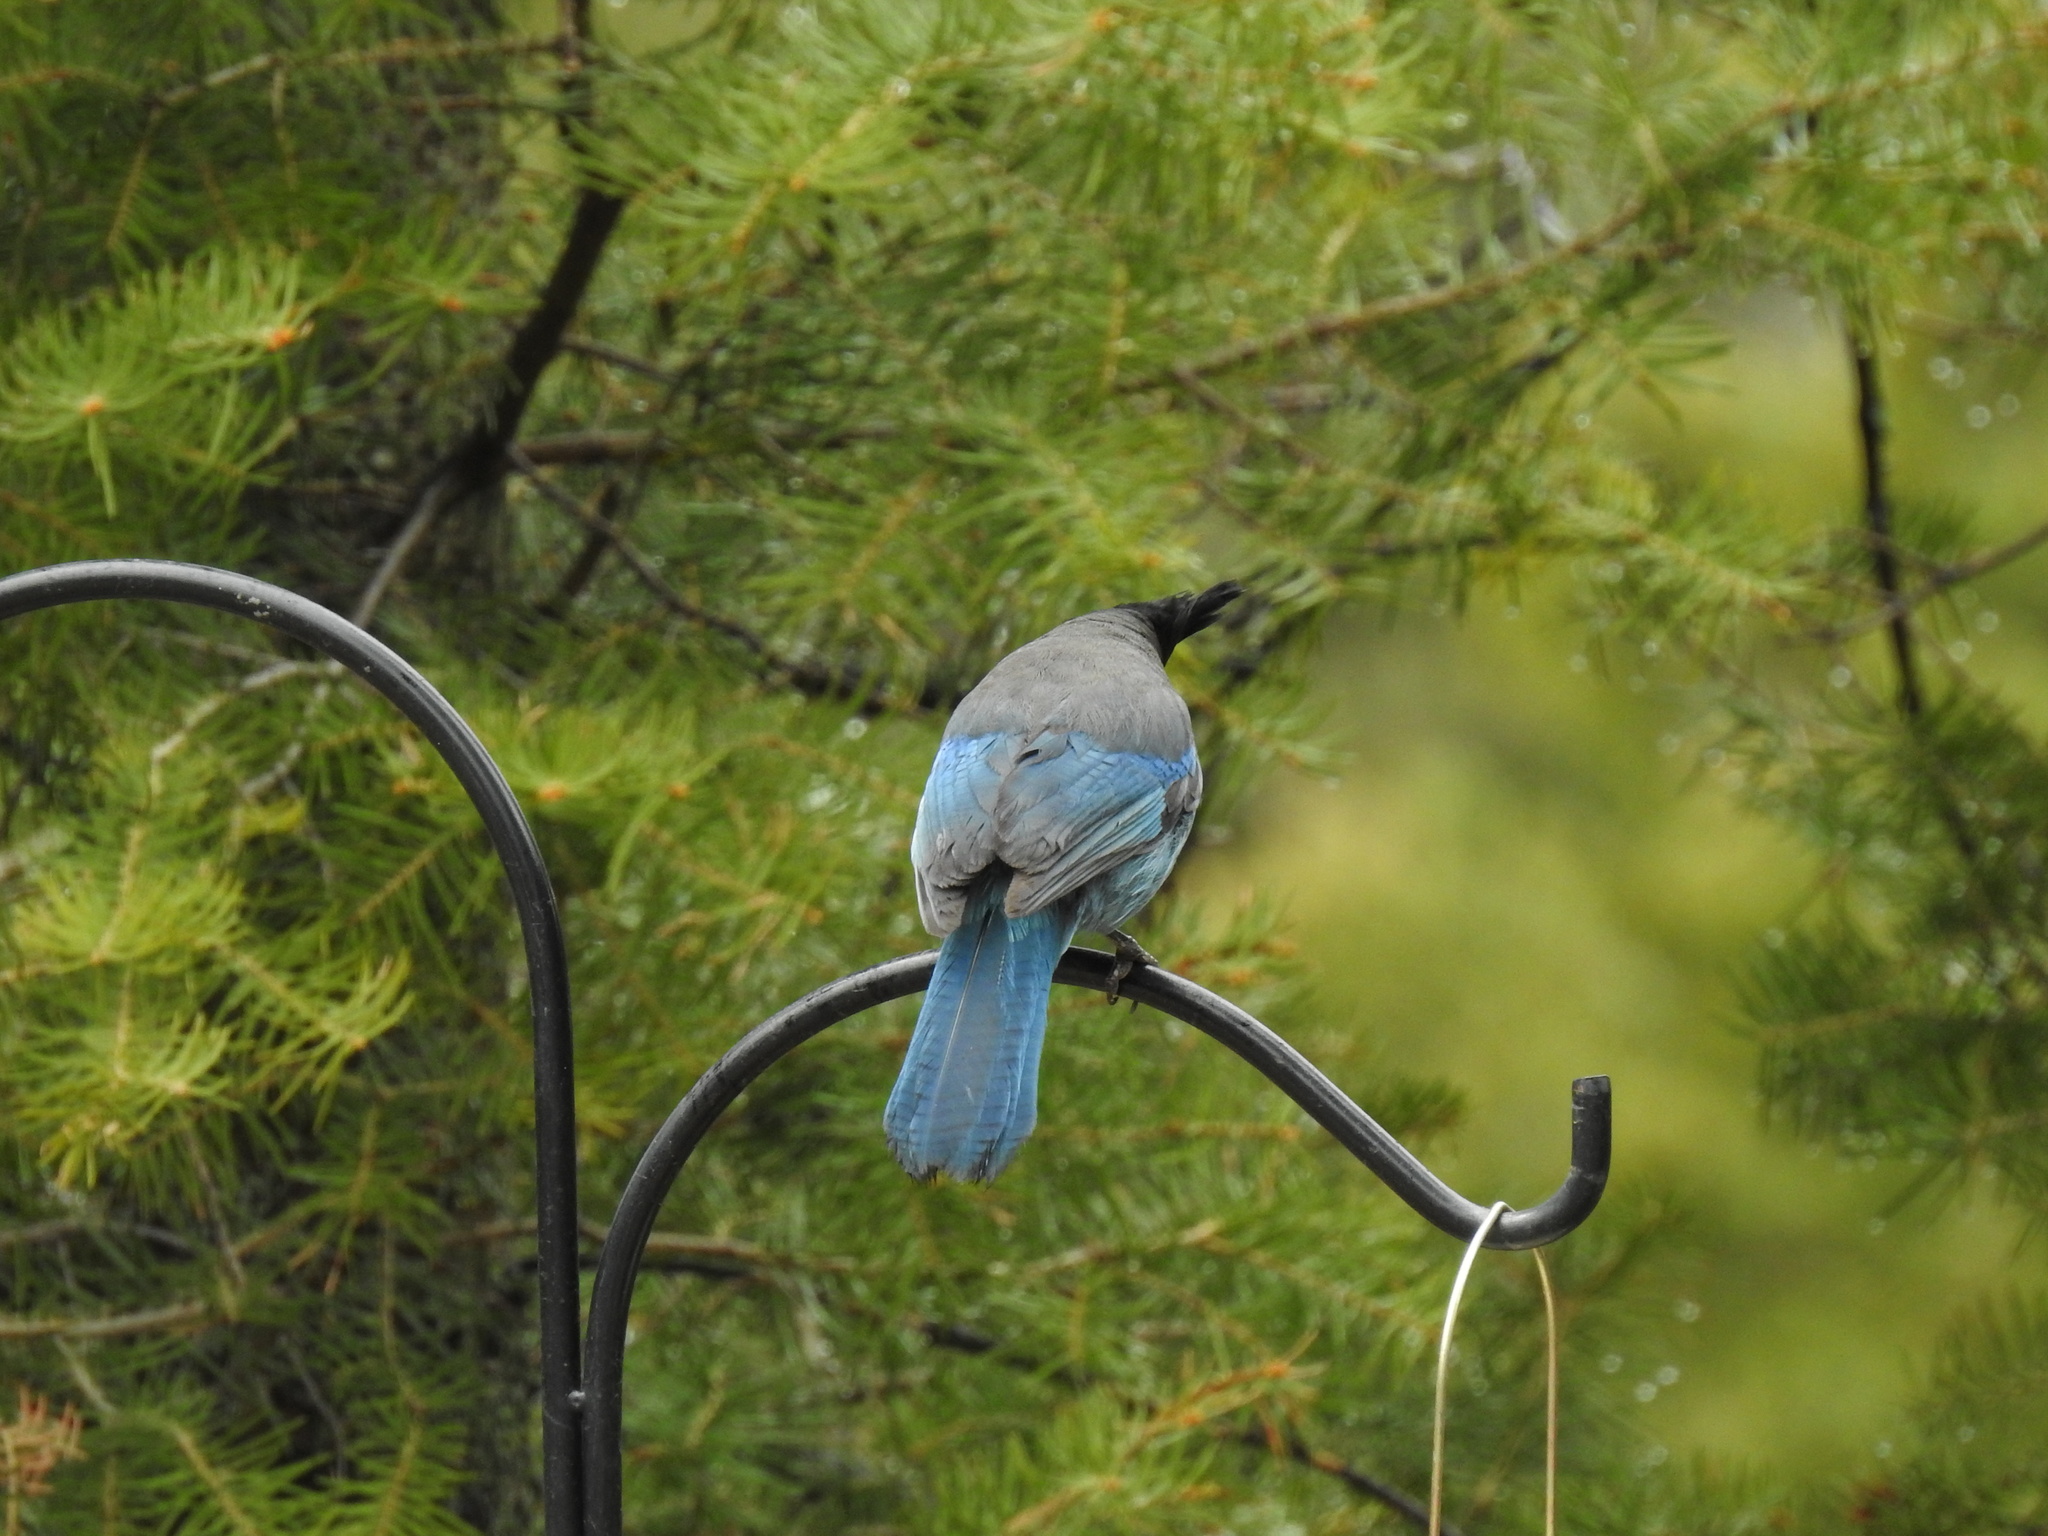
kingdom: Animalia
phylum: Chordata
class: Aves
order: Passeriformes
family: Corvidae
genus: Cyanocitta
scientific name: Cyanocitta stelleri
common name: Steller's jay
